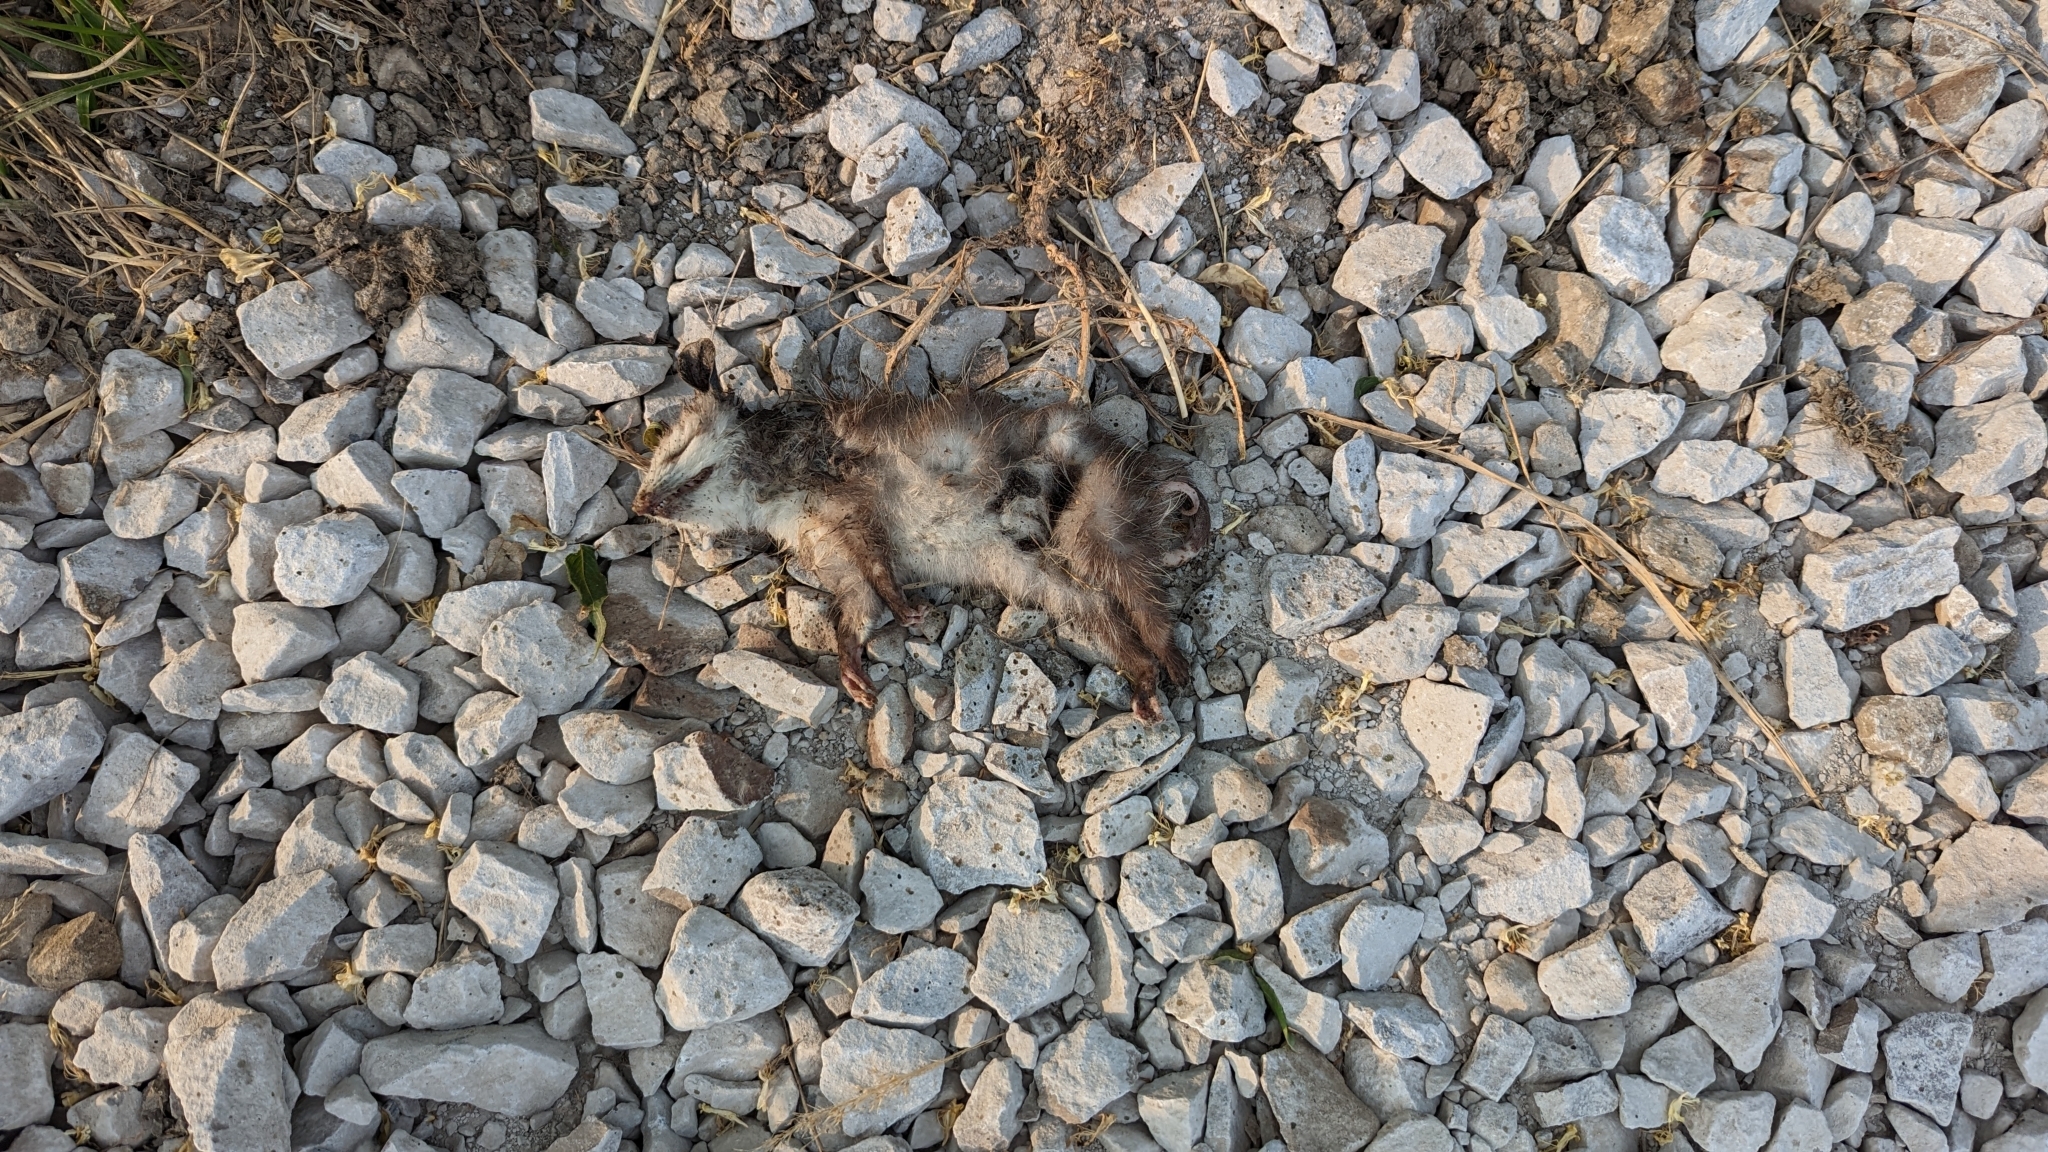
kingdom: Animalia
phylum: Chordata
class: Mammalia
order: Didelphimorphia
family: Didelphidae
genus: Didelphis
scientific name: Didelphis virginiana
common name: Virginia opossum
